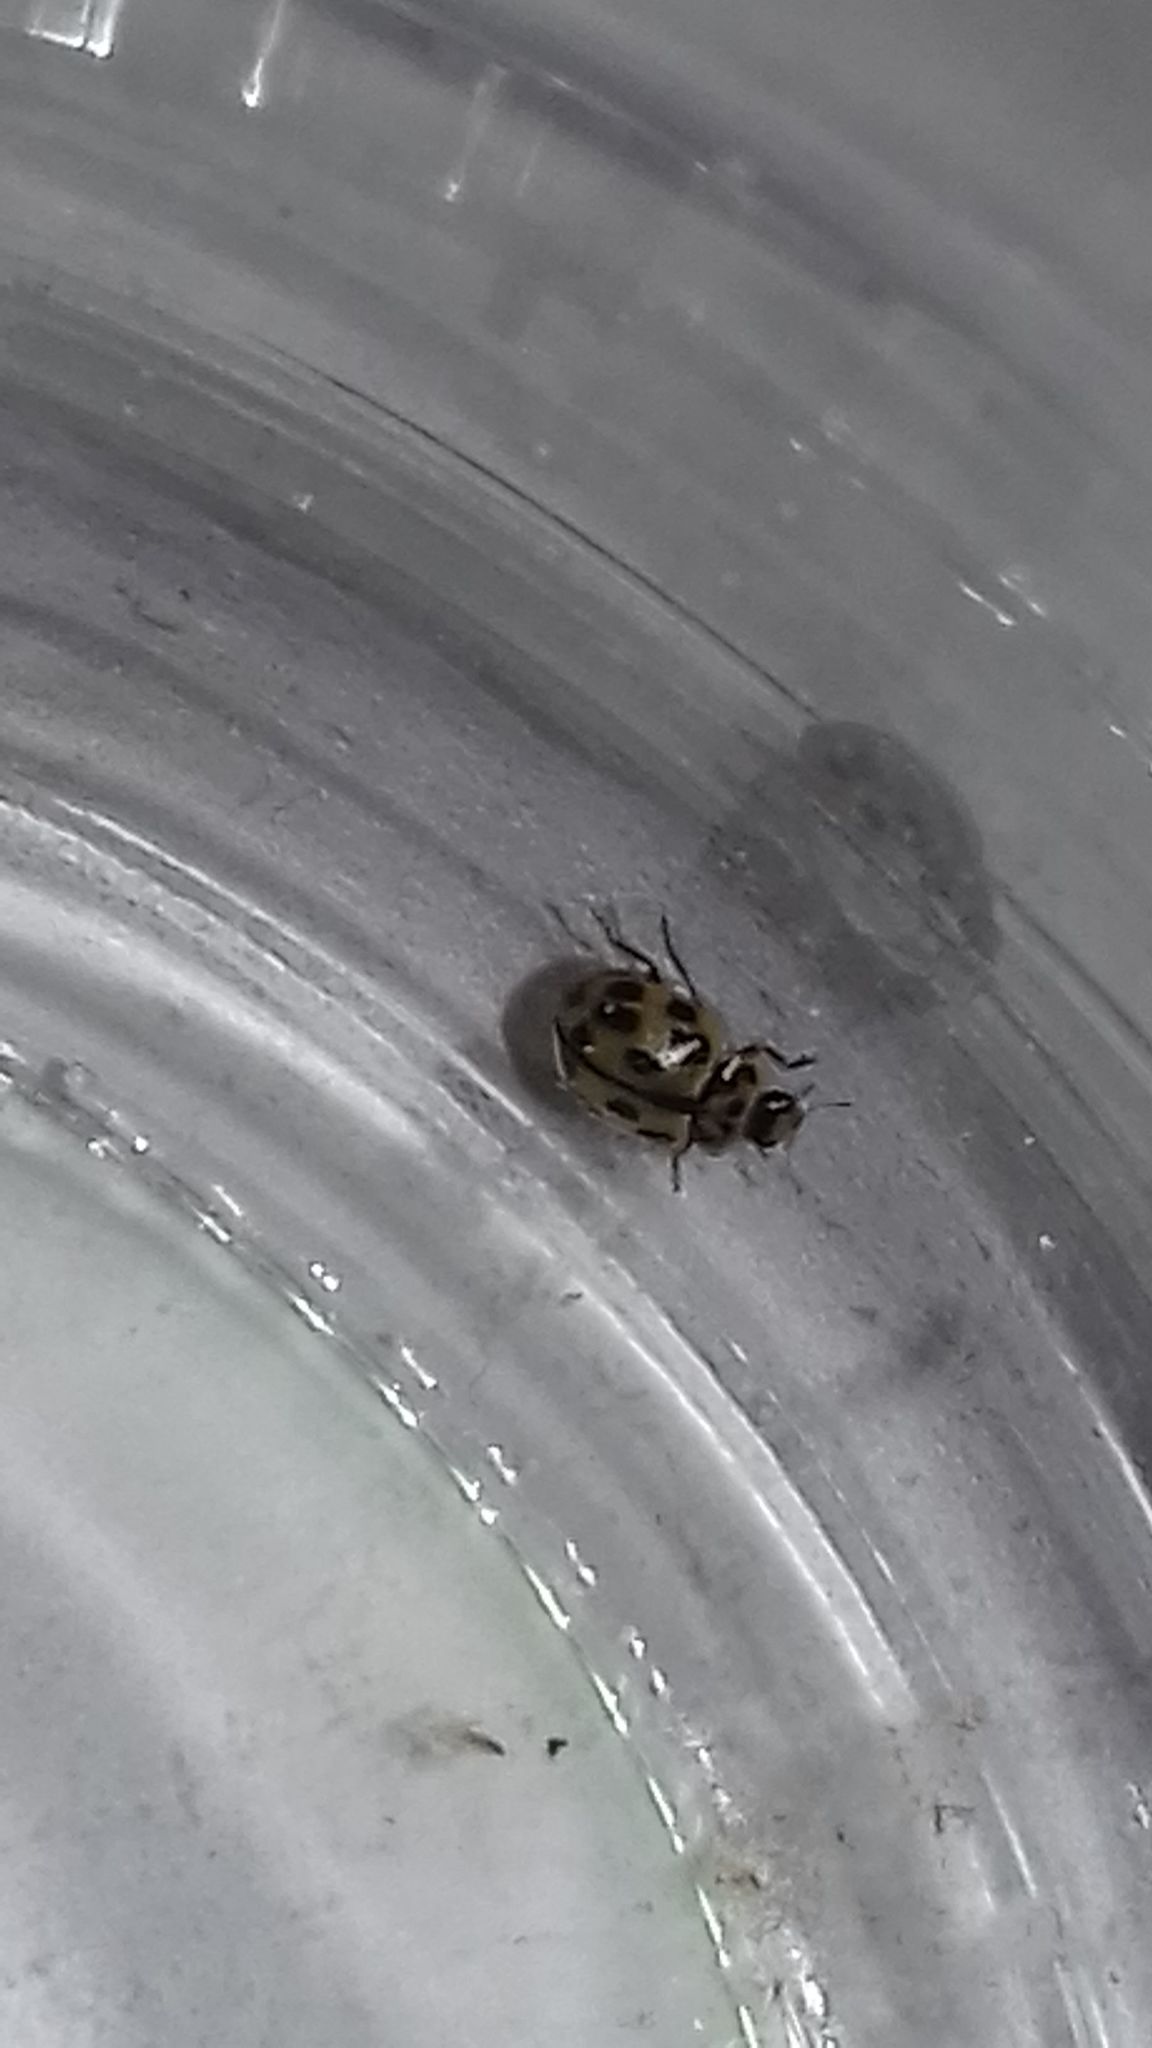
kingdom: Animalia
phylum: Arthropoda
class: Insecta
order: Coleoptera
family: Coccinellidae
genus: Propylaea
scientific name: Propylaea quatuordecimpunctata
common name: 14-spotted ladybird beetle
